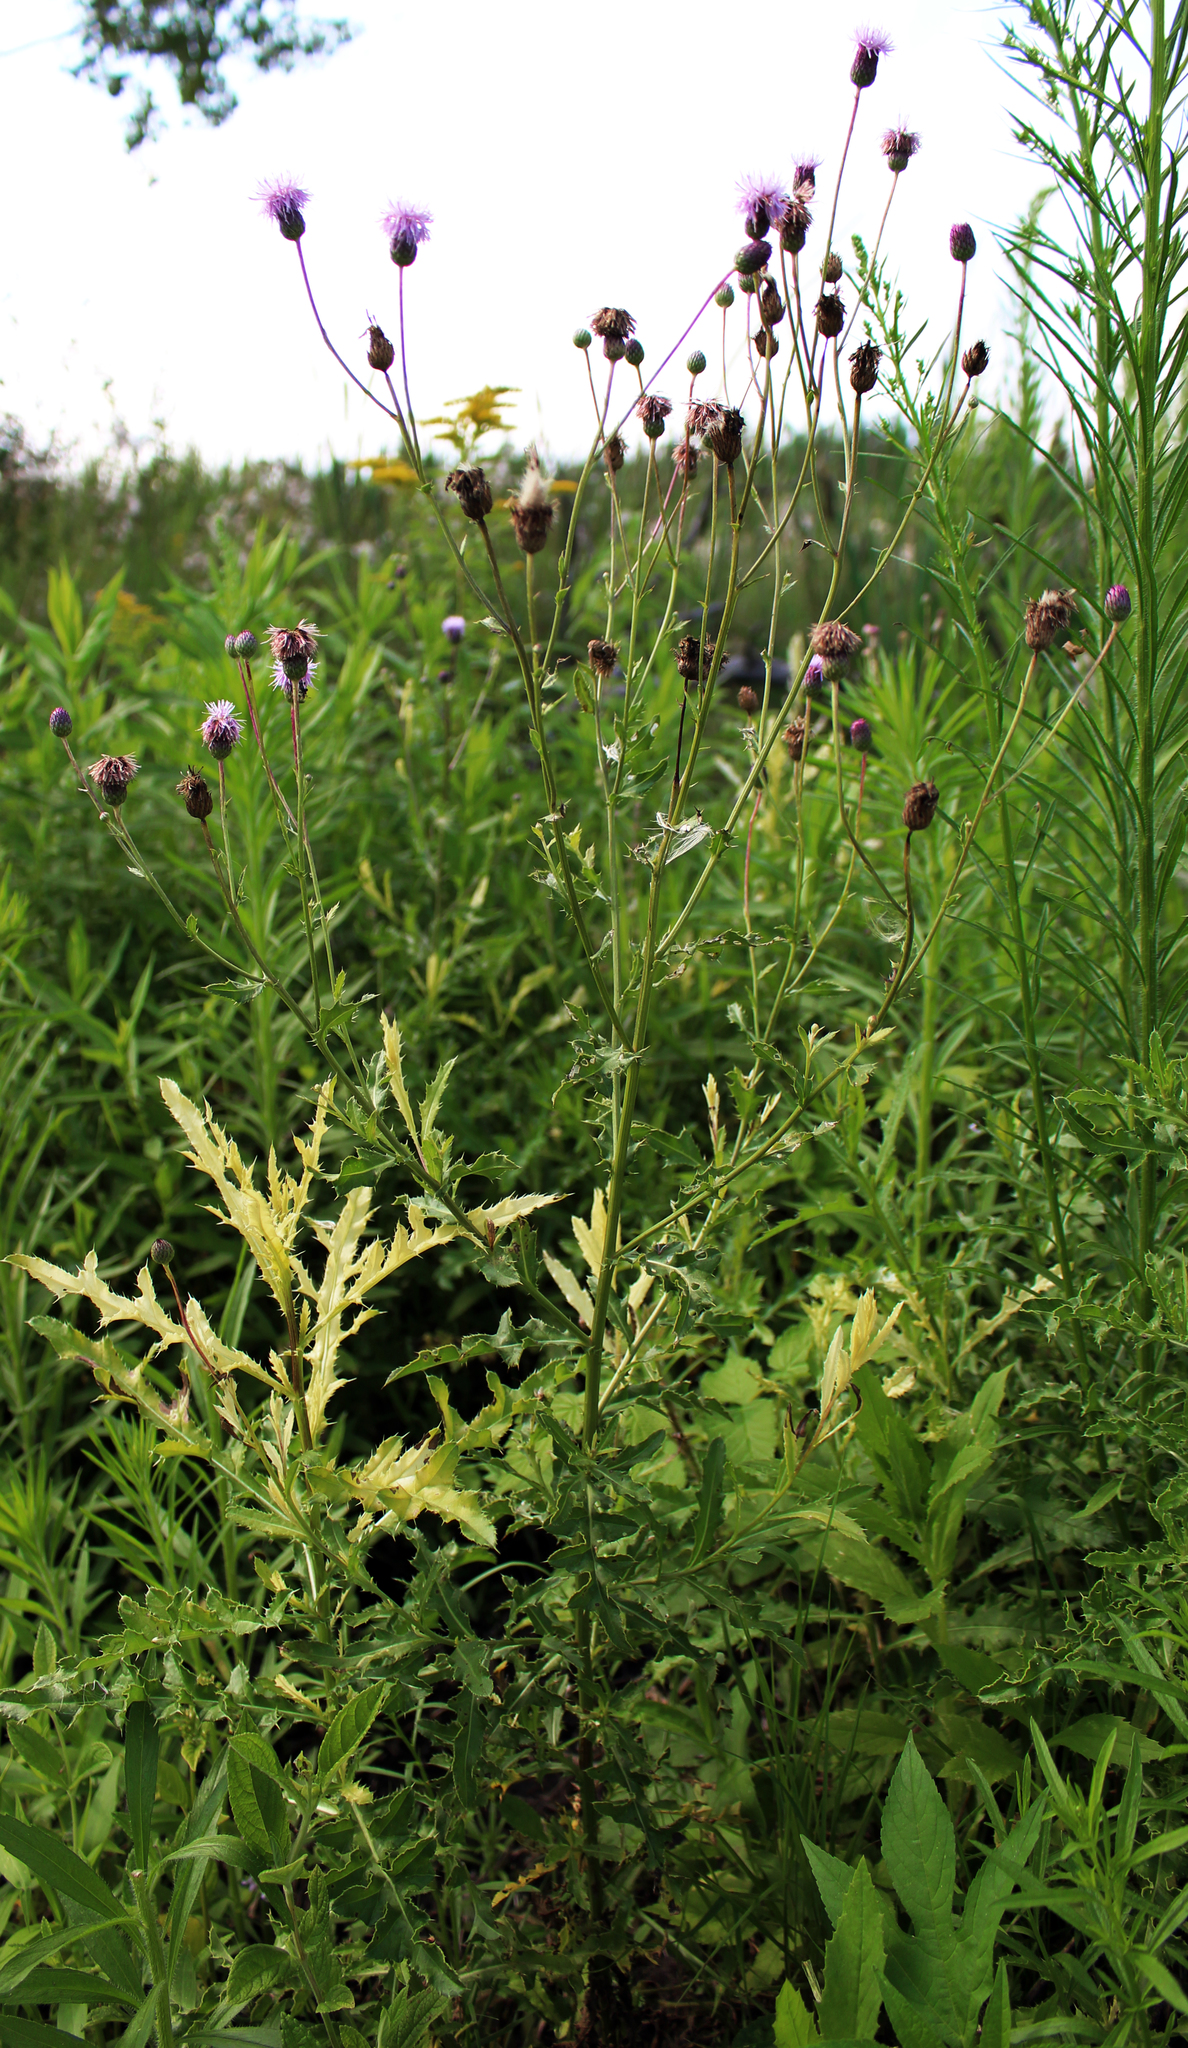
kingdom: Plantae
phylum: Tracheophyta
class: Magnoliopsida
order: Asterales
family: Asteraceae
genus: Cirsium
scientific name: Cirsium arvense
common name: Creeping thistle
